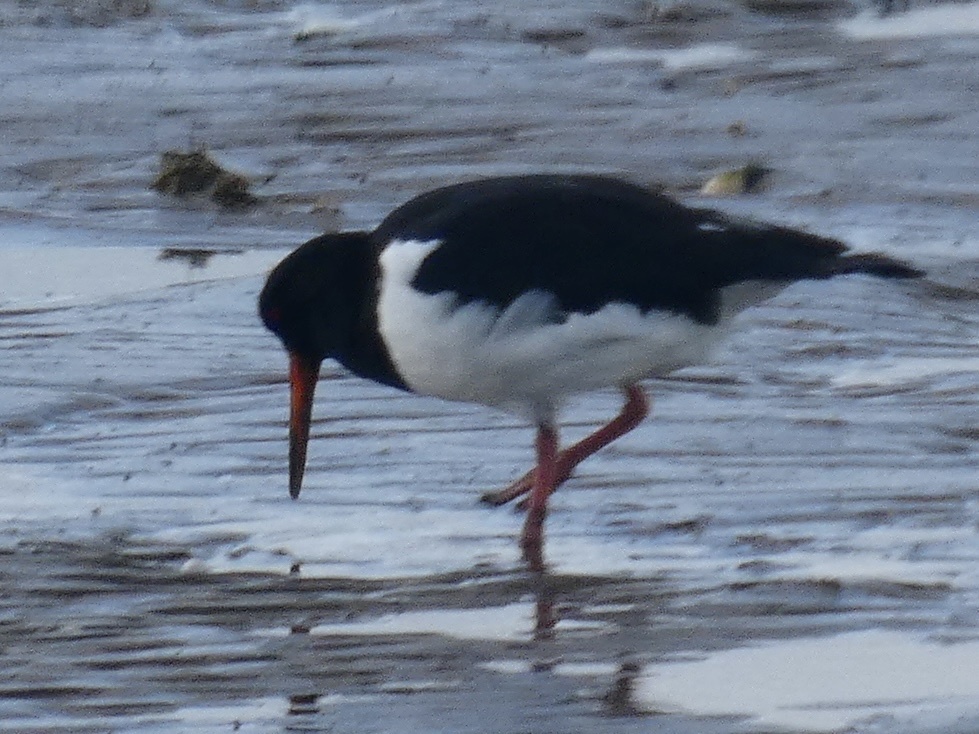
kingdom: Animalia
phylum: Chordata
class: Aves
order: Charadriiformes
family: Haematopodidae
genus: Haematopus
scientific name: Haematopus ostralegus
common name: Eurasian oystercatcher
